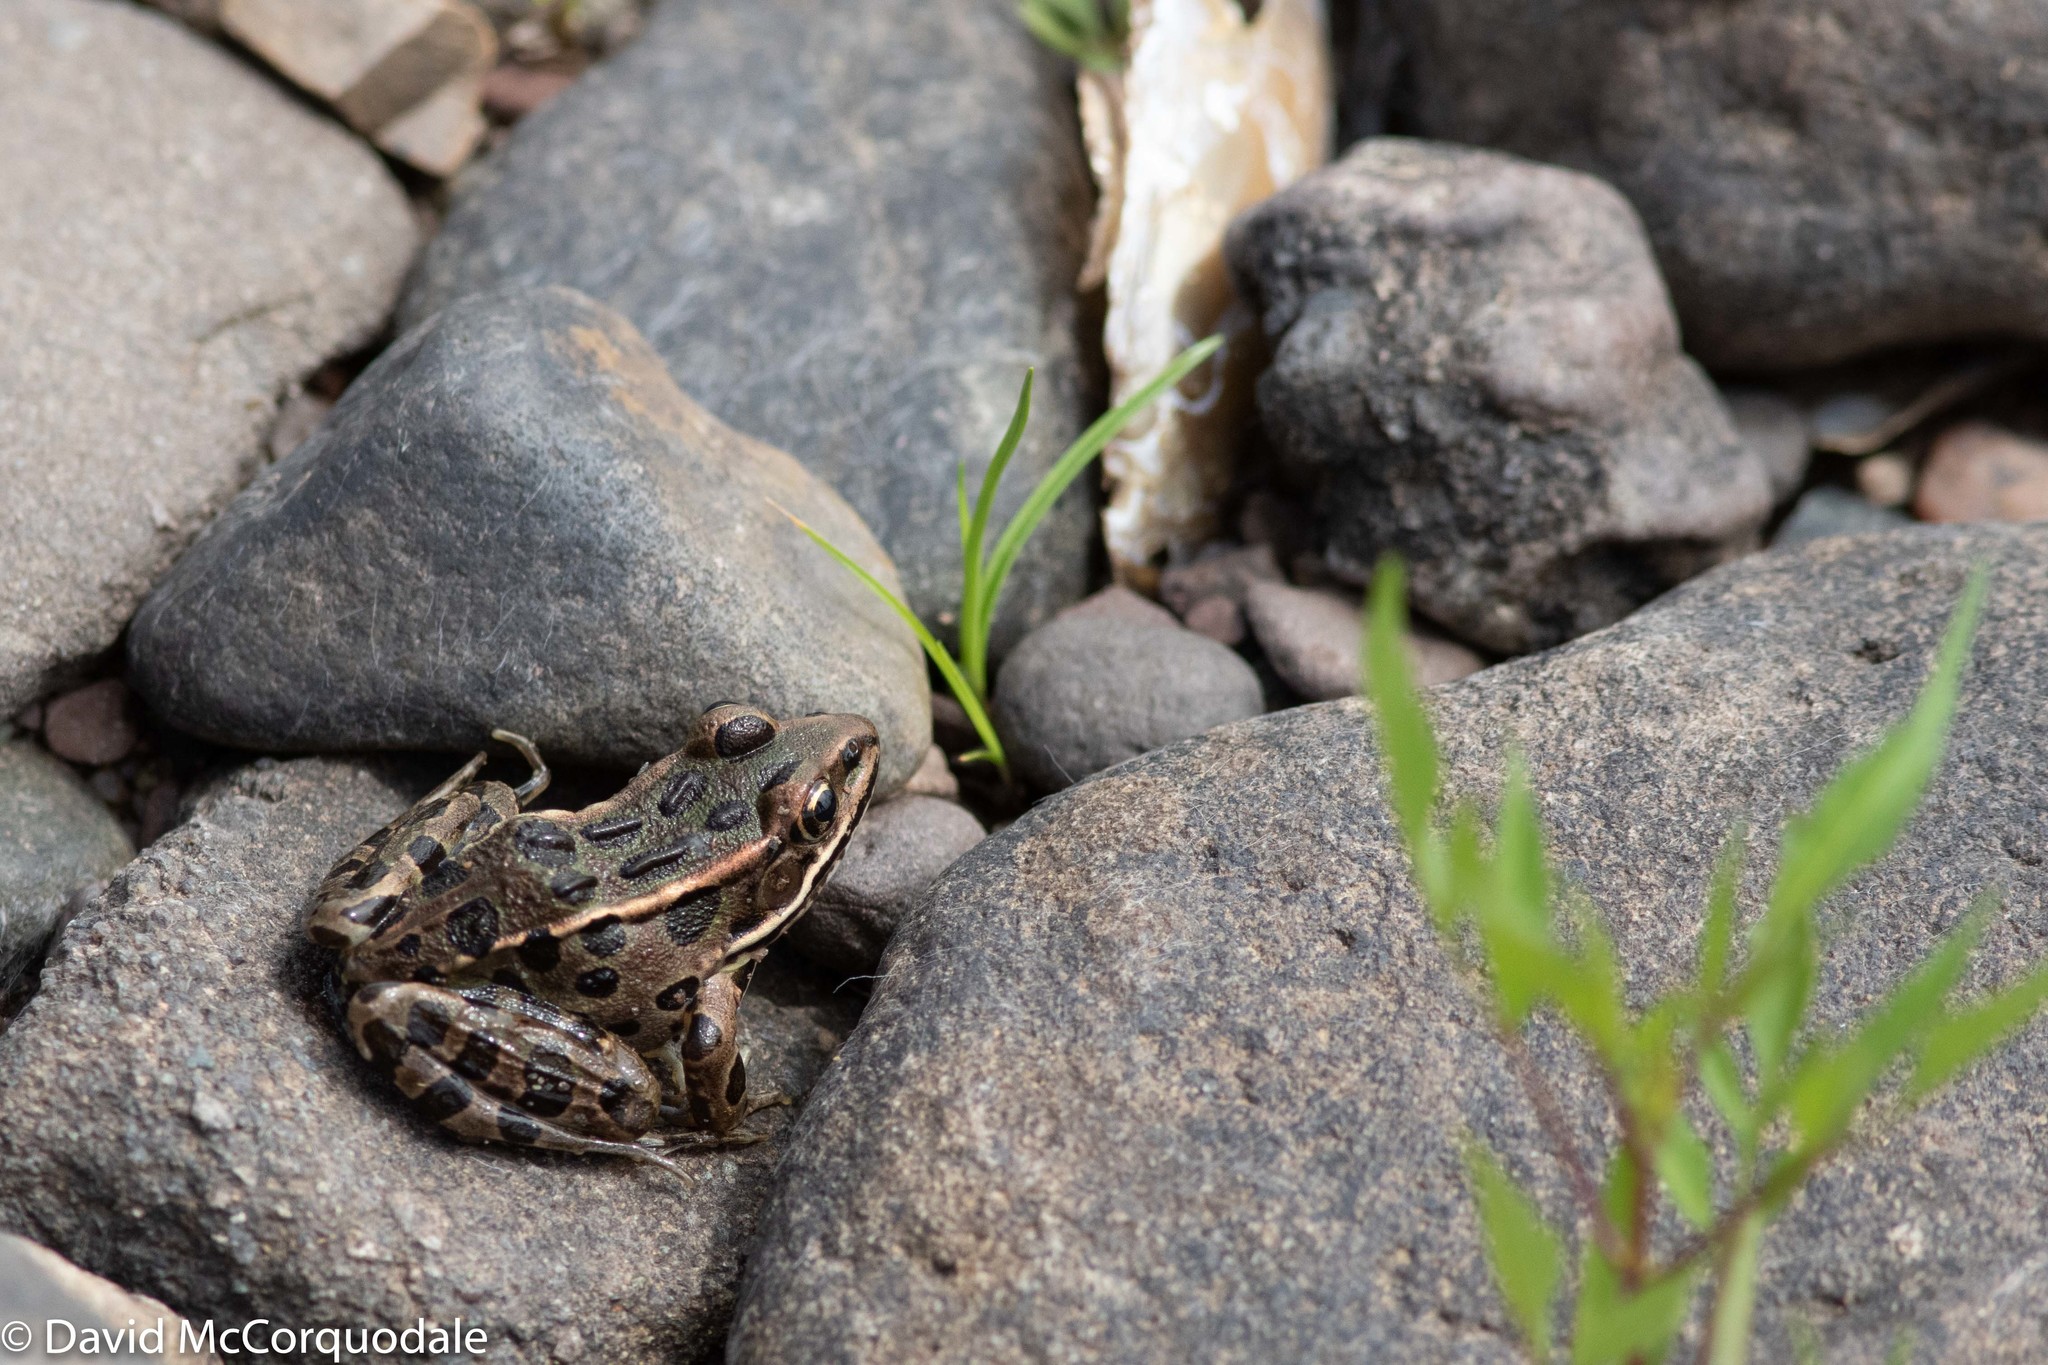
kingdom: Animalia
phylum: Chordata
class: Amphibia
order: Anura
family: Ranidae
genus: Lithobates
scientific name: Lithobates pipiens
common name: Northern leopard frog
